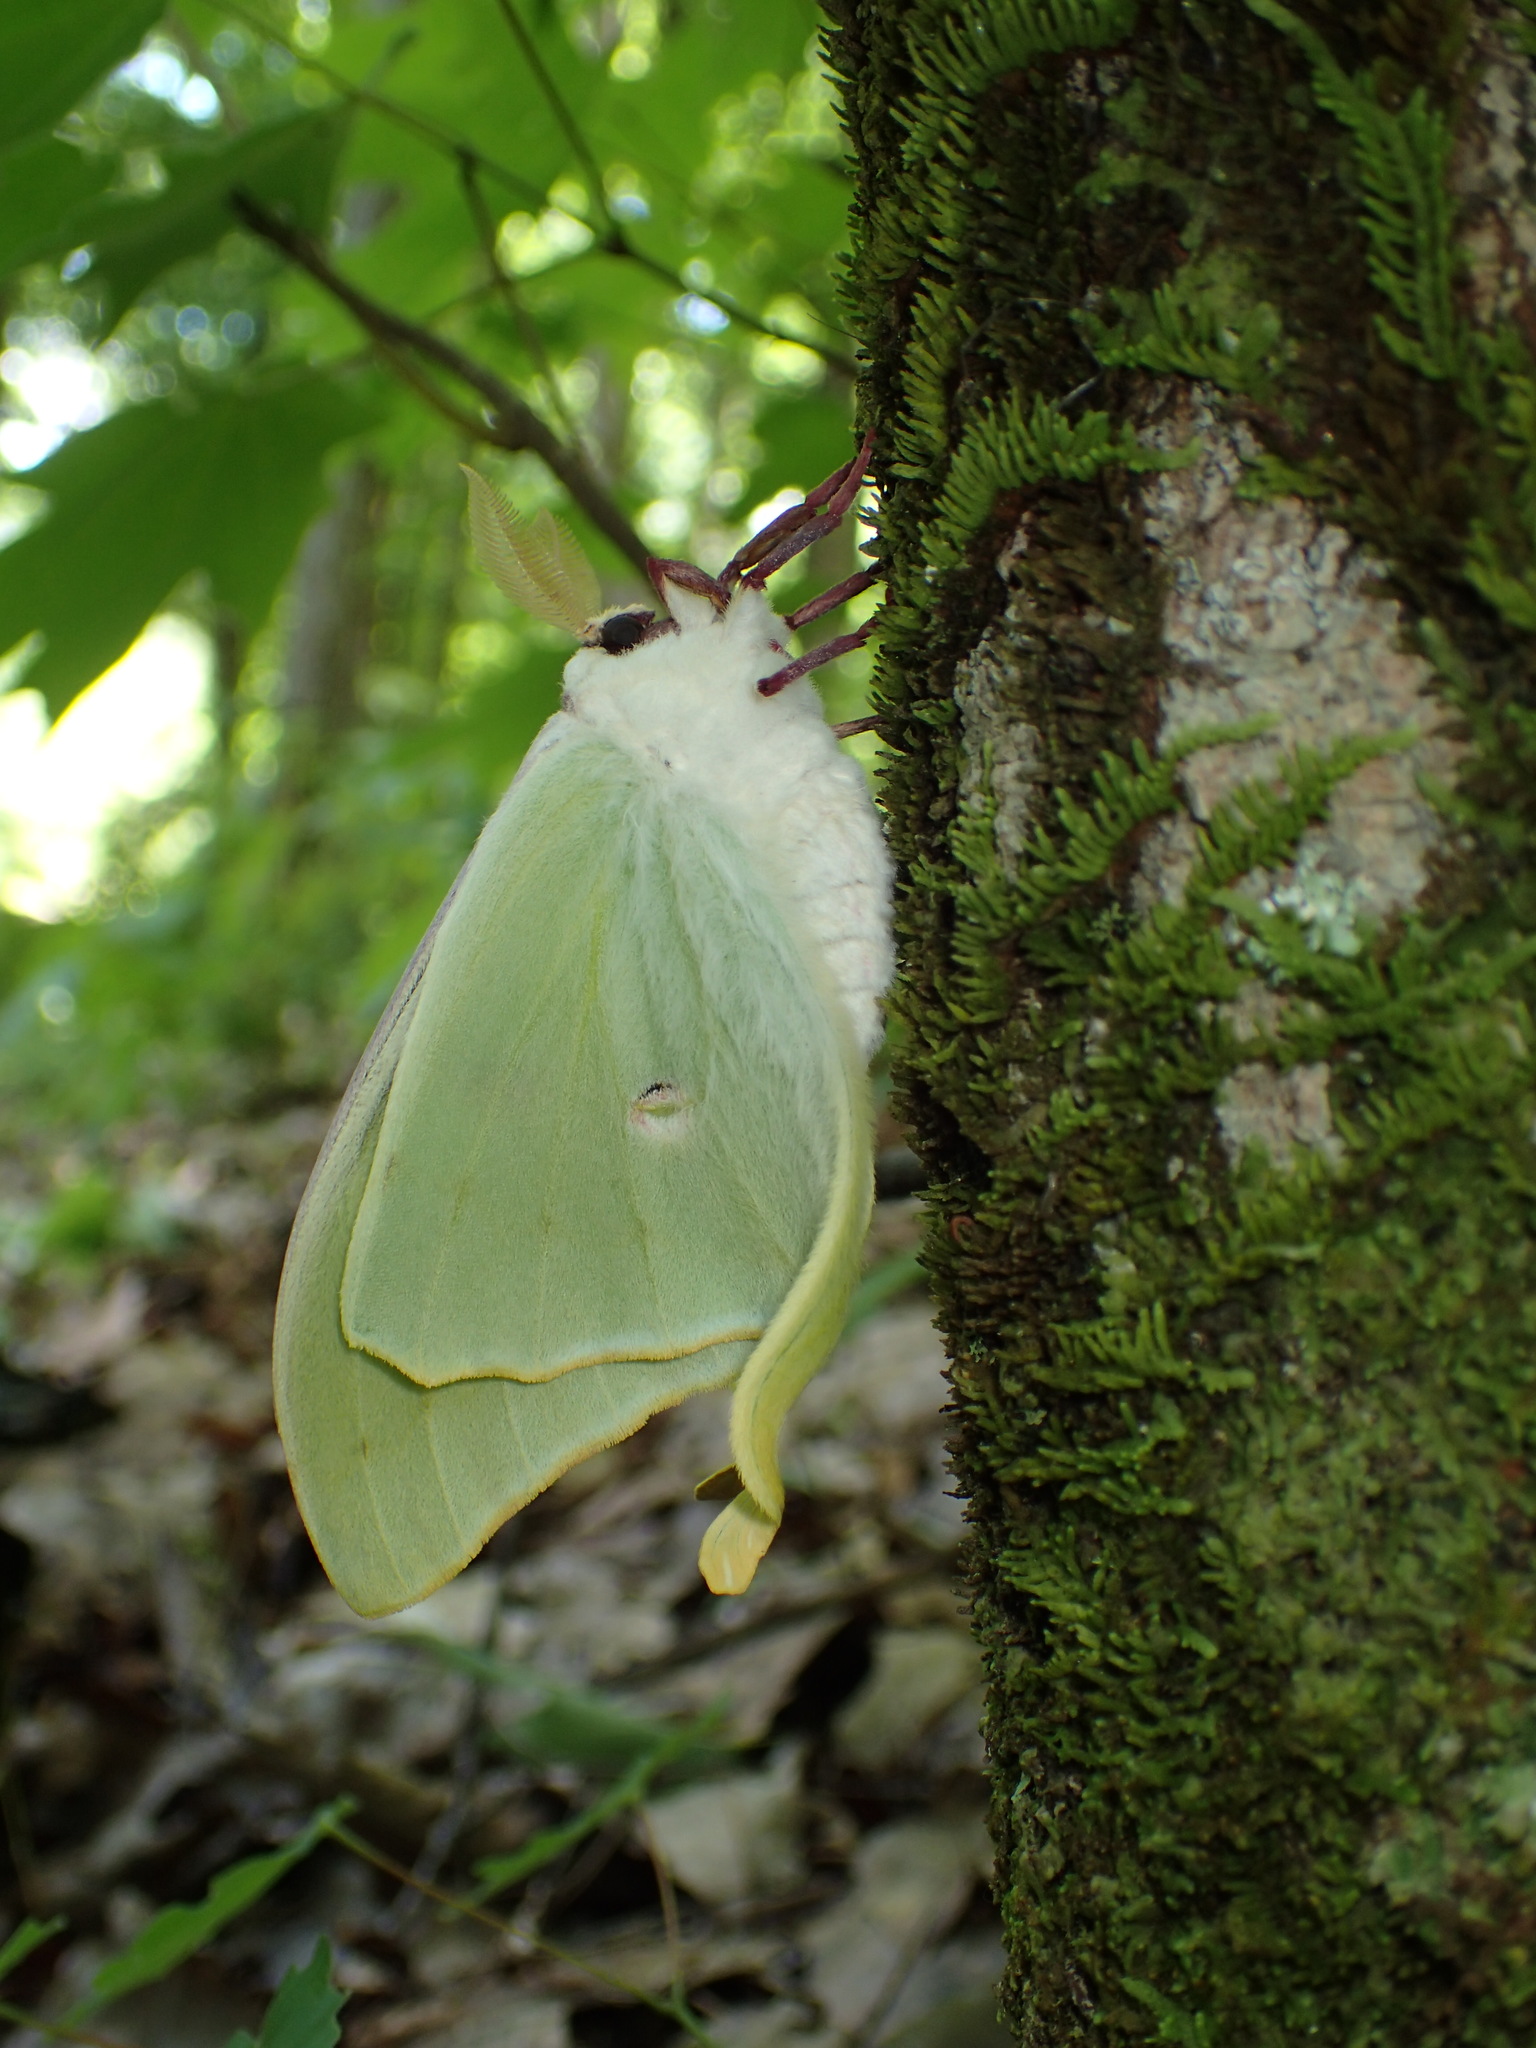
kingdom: Animalia
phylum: Arthropoda
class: Insecta
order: Lepidoptera
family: Saturniidae
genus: Actias
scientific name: Actias luna
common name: Luna moth
